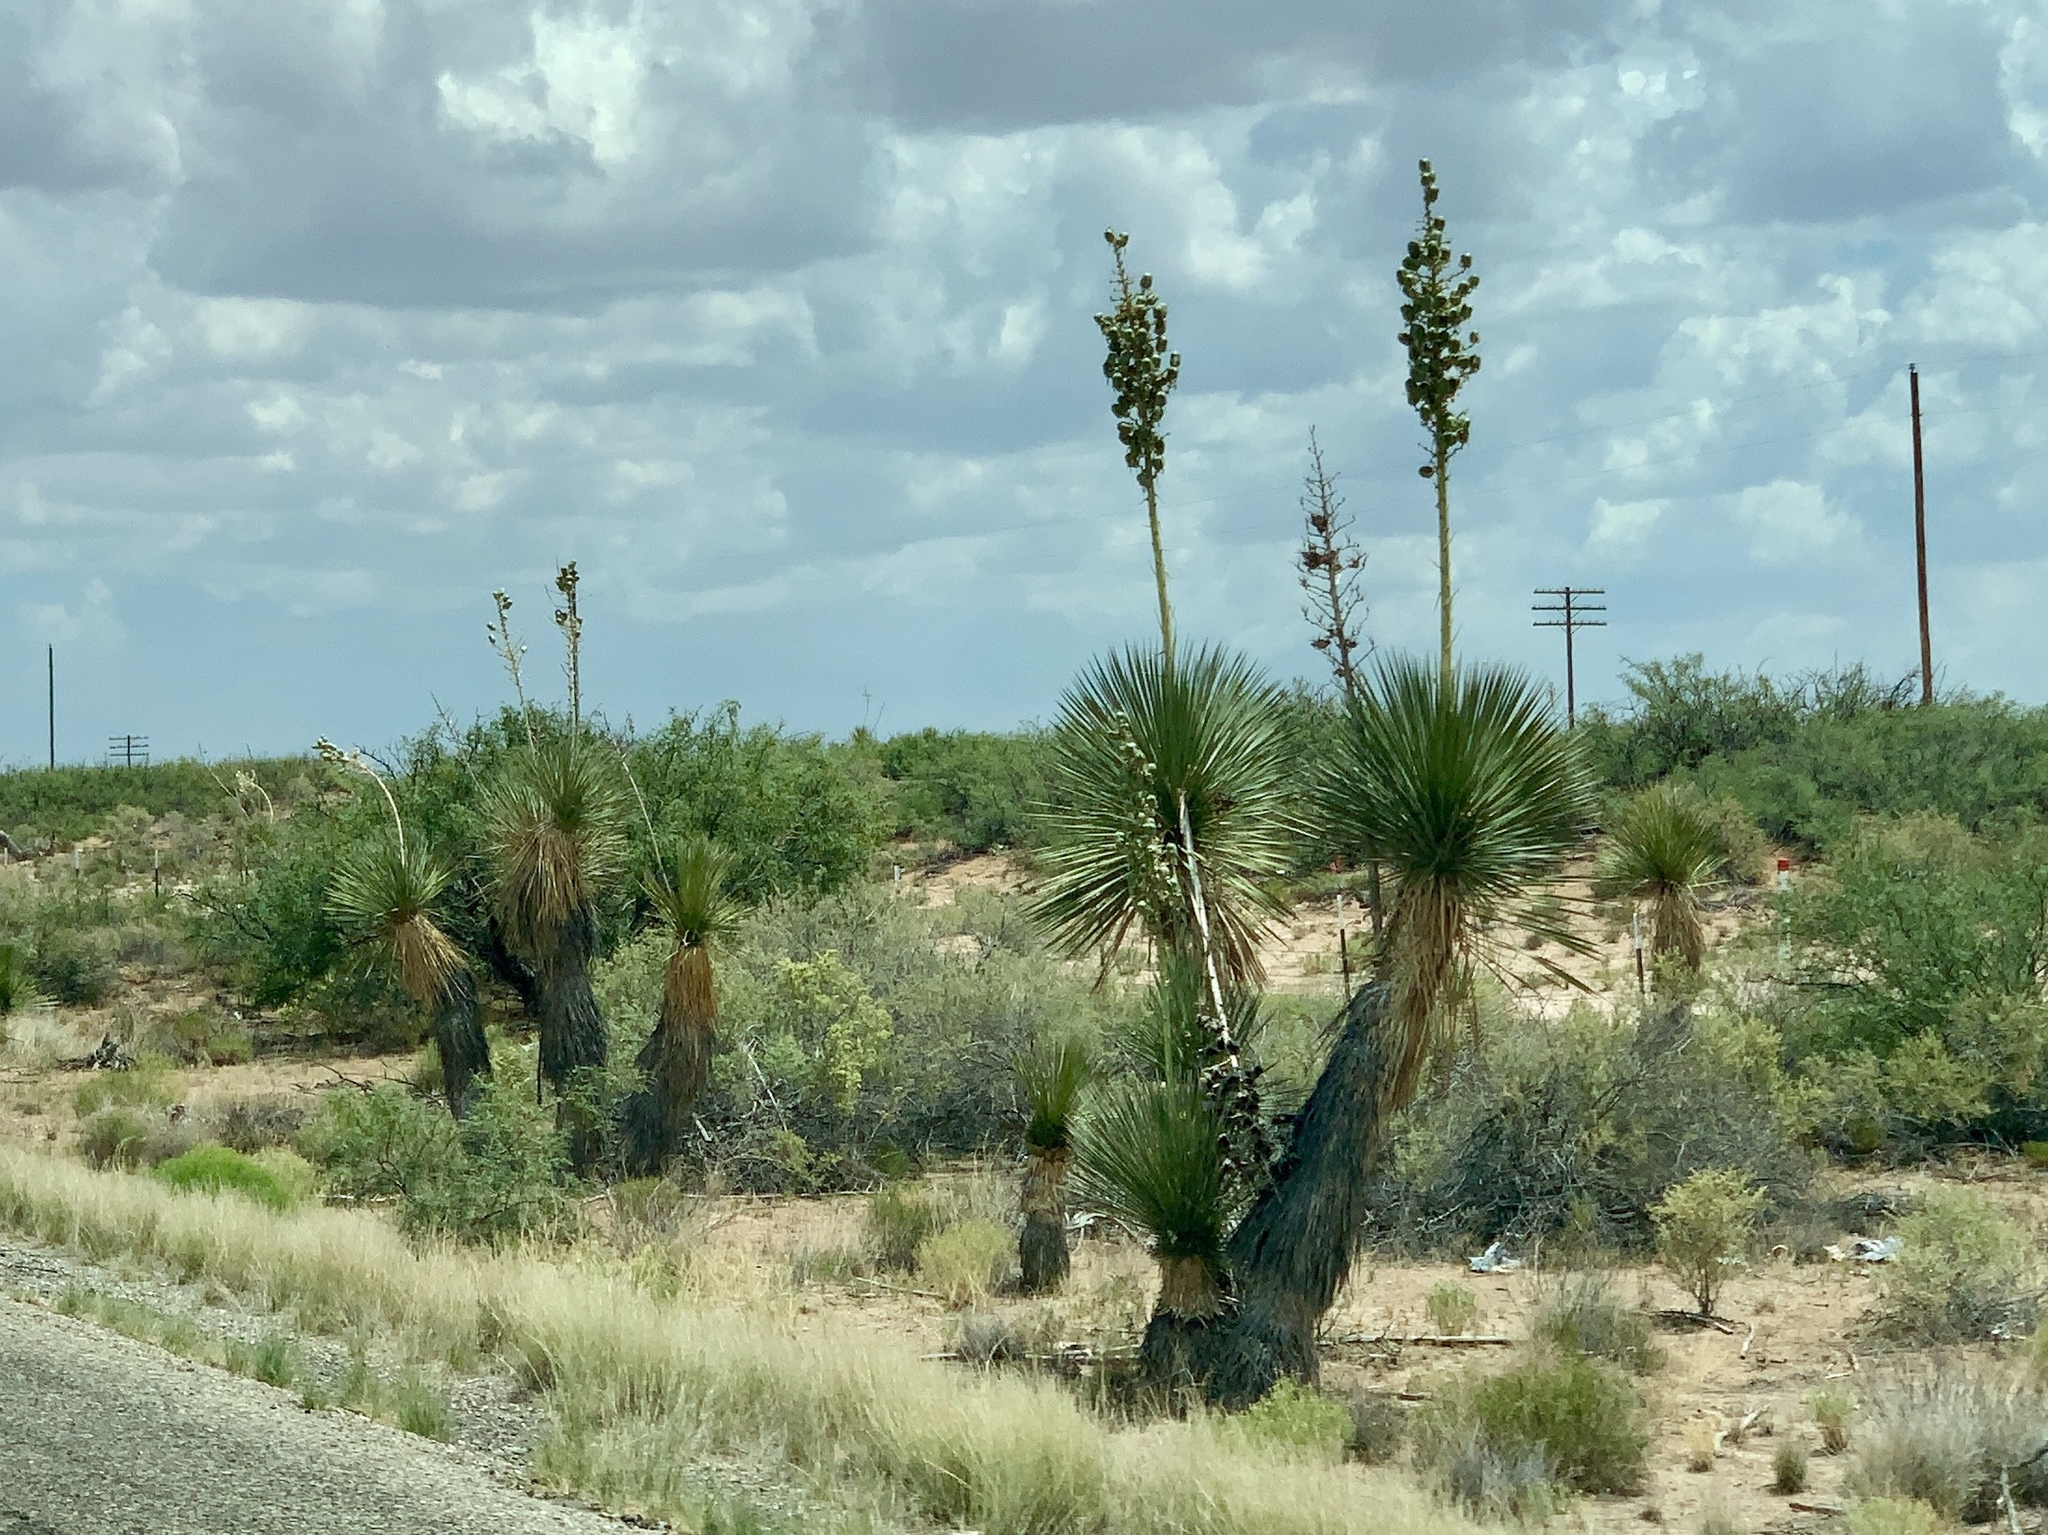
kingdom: Plantae
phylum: Tracheophyta
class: Liliopsida
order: Asparagales
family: Asparagaceae
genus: Yucca
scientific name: Yucca elata
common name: Palmella
